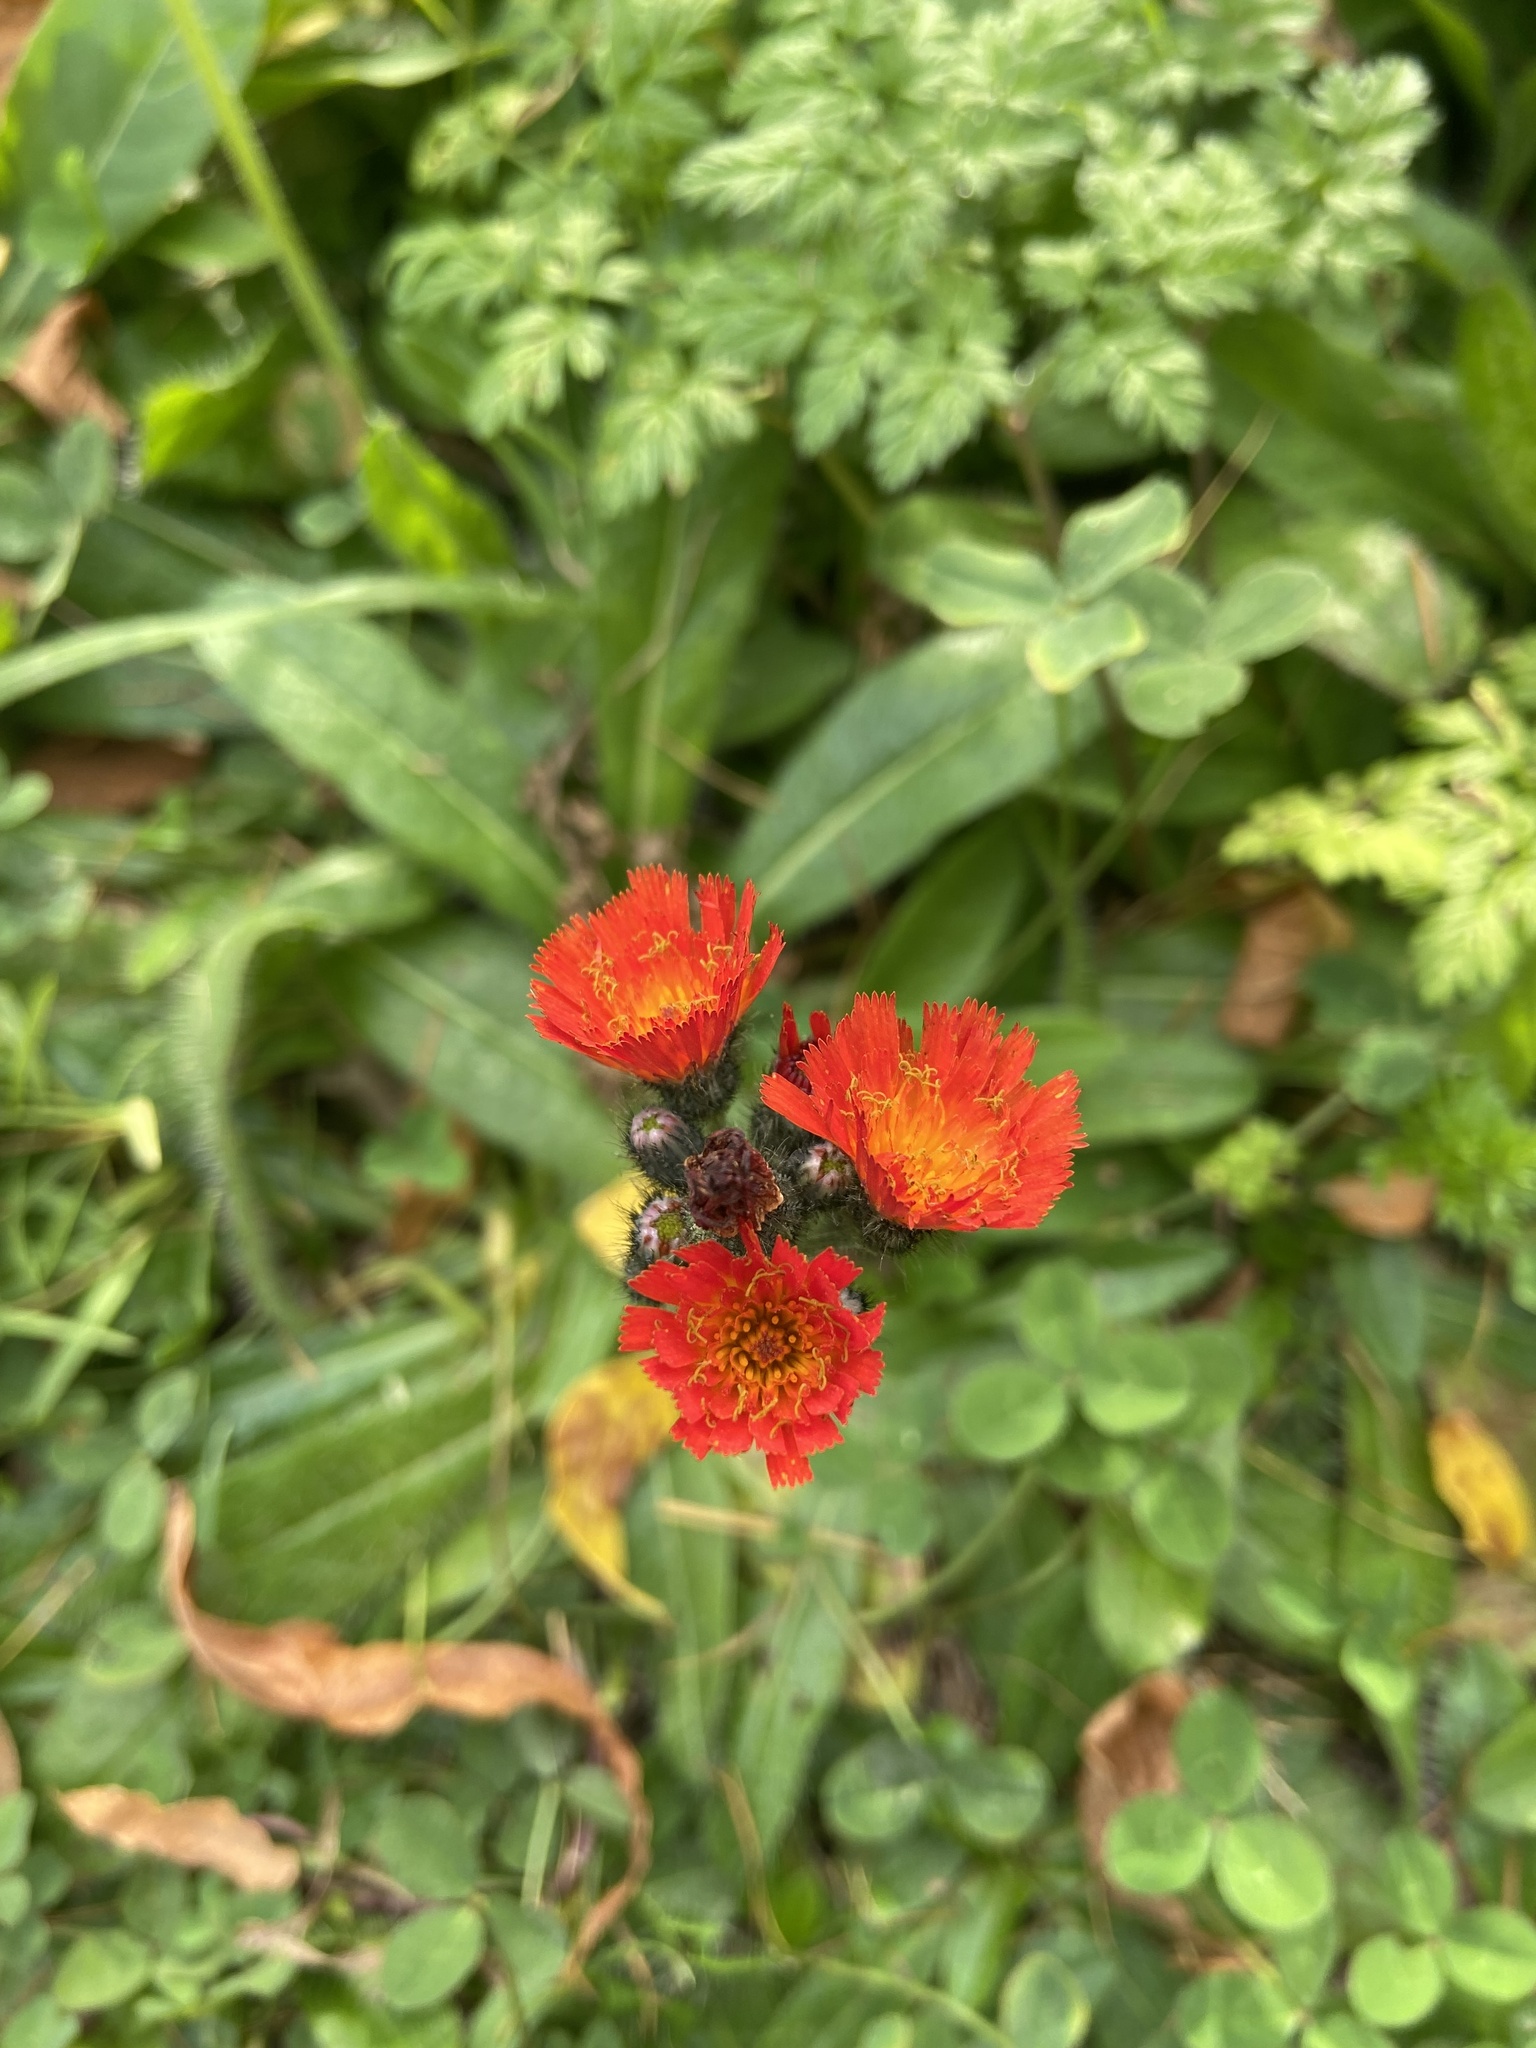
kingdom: Plantae
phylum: Tracheophyta
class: Magnoliopsida
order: Asterales
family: Asteraceae
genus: Pilosella
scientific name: Pilosella aurantiaca
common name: Fox-and-cubs
